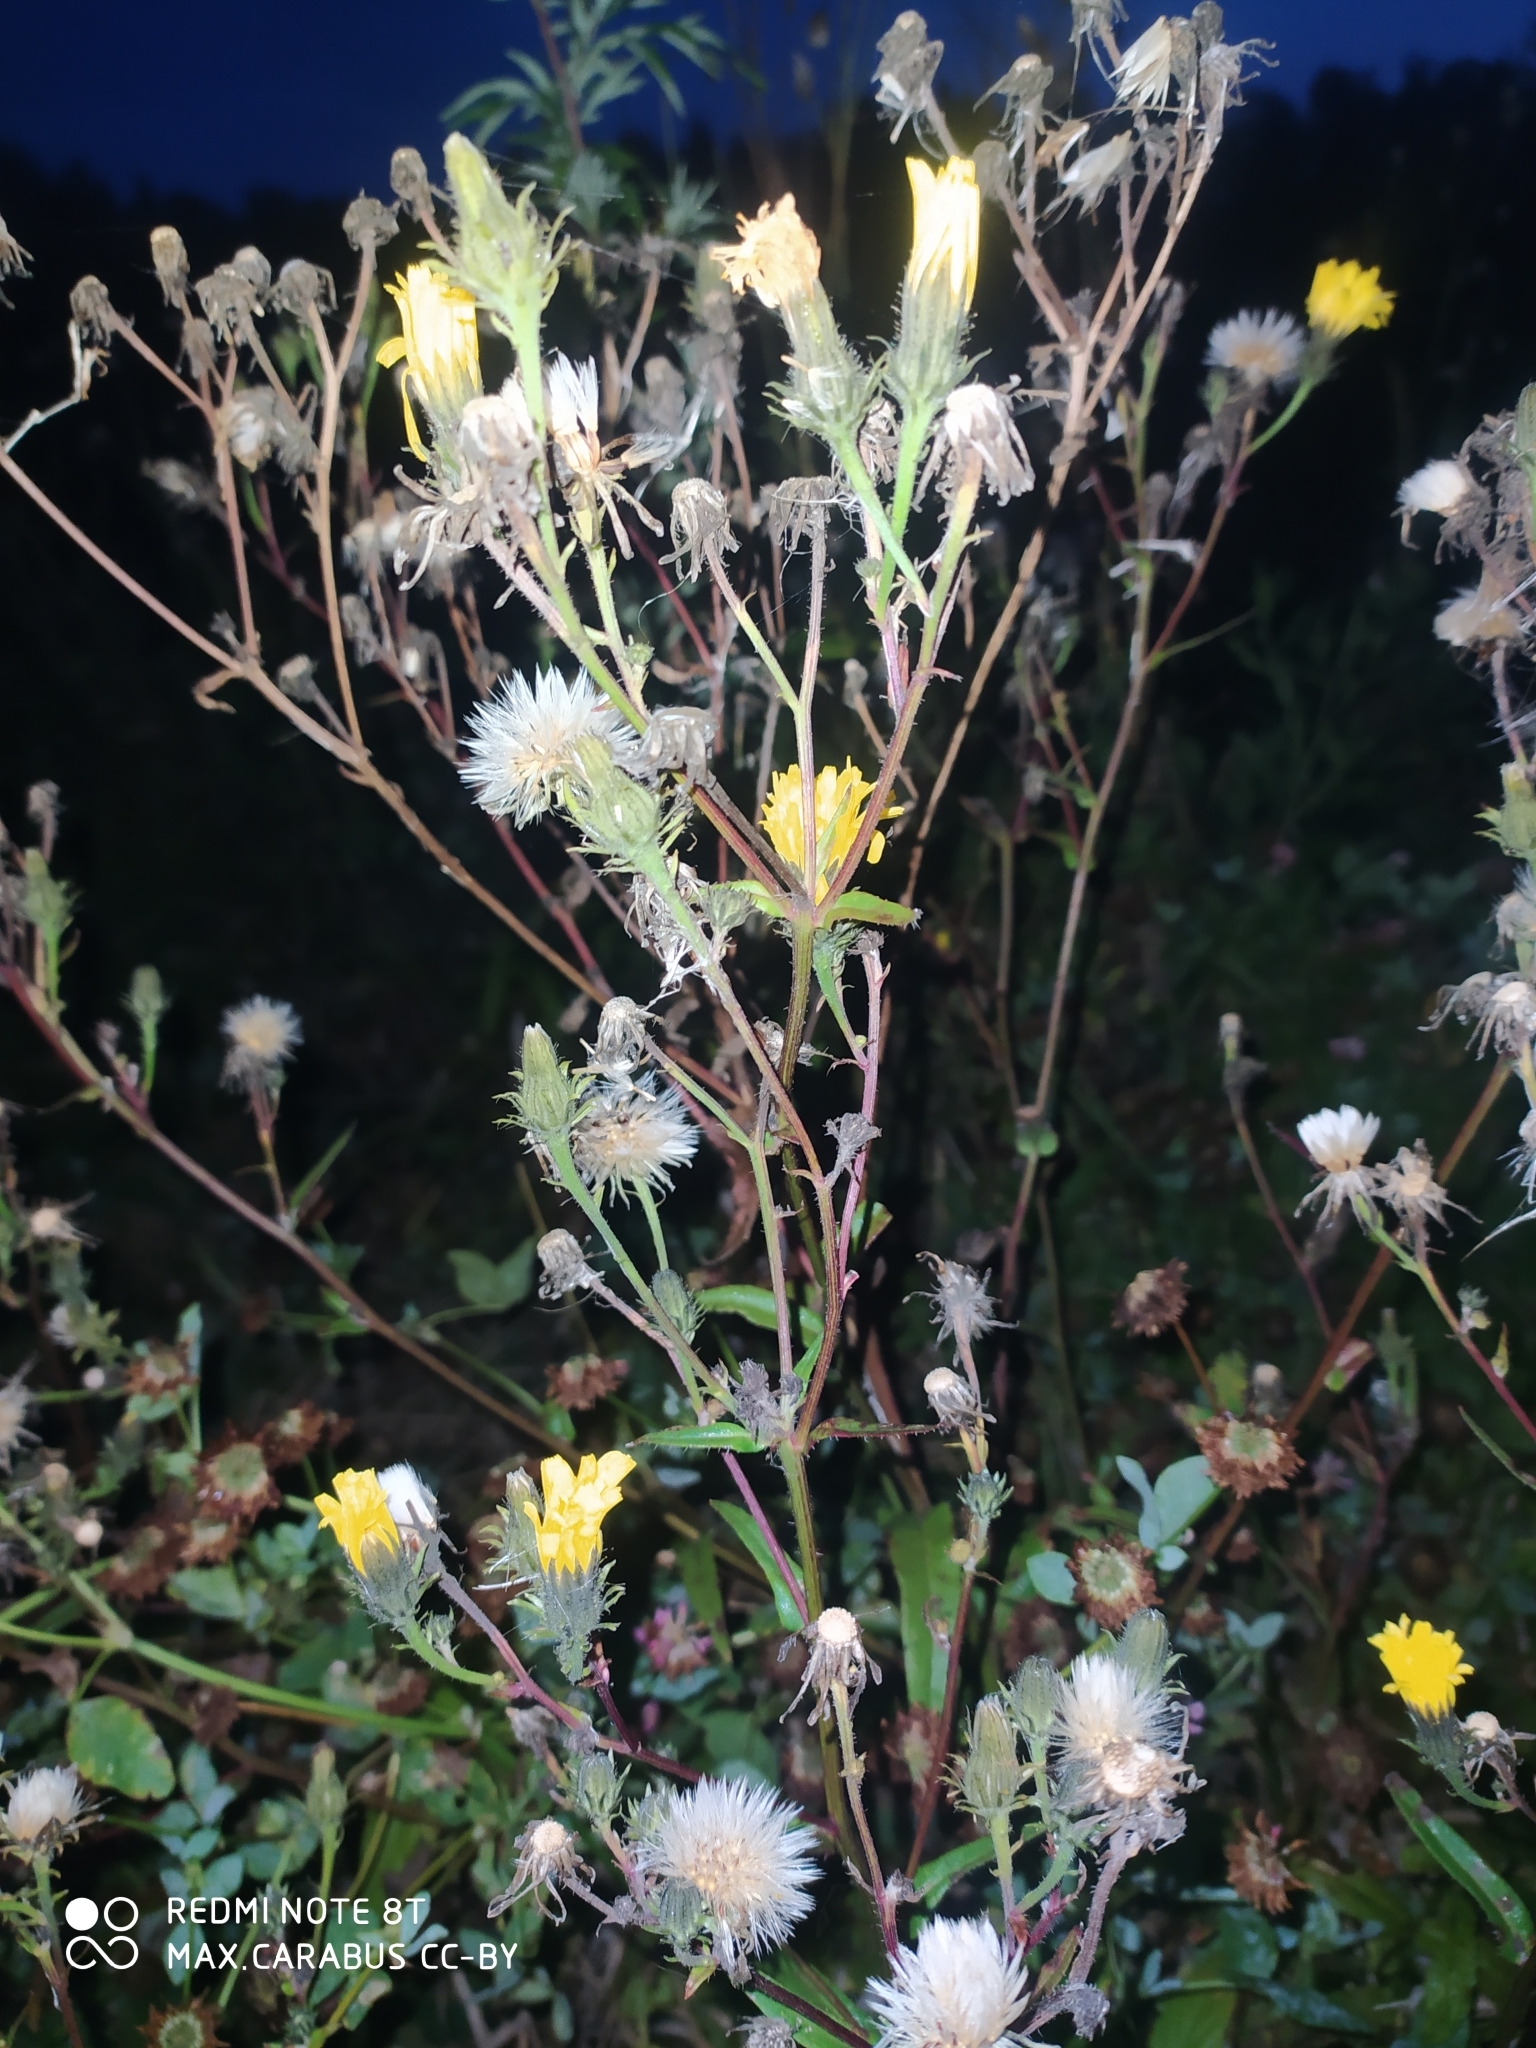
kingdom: Plantae
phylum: Tracheophyta
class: Magnoliopsida
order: Asterales
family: Asteraceae
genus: Picris
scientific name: Picris hieracioides
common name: Hawkweed oxtongue
